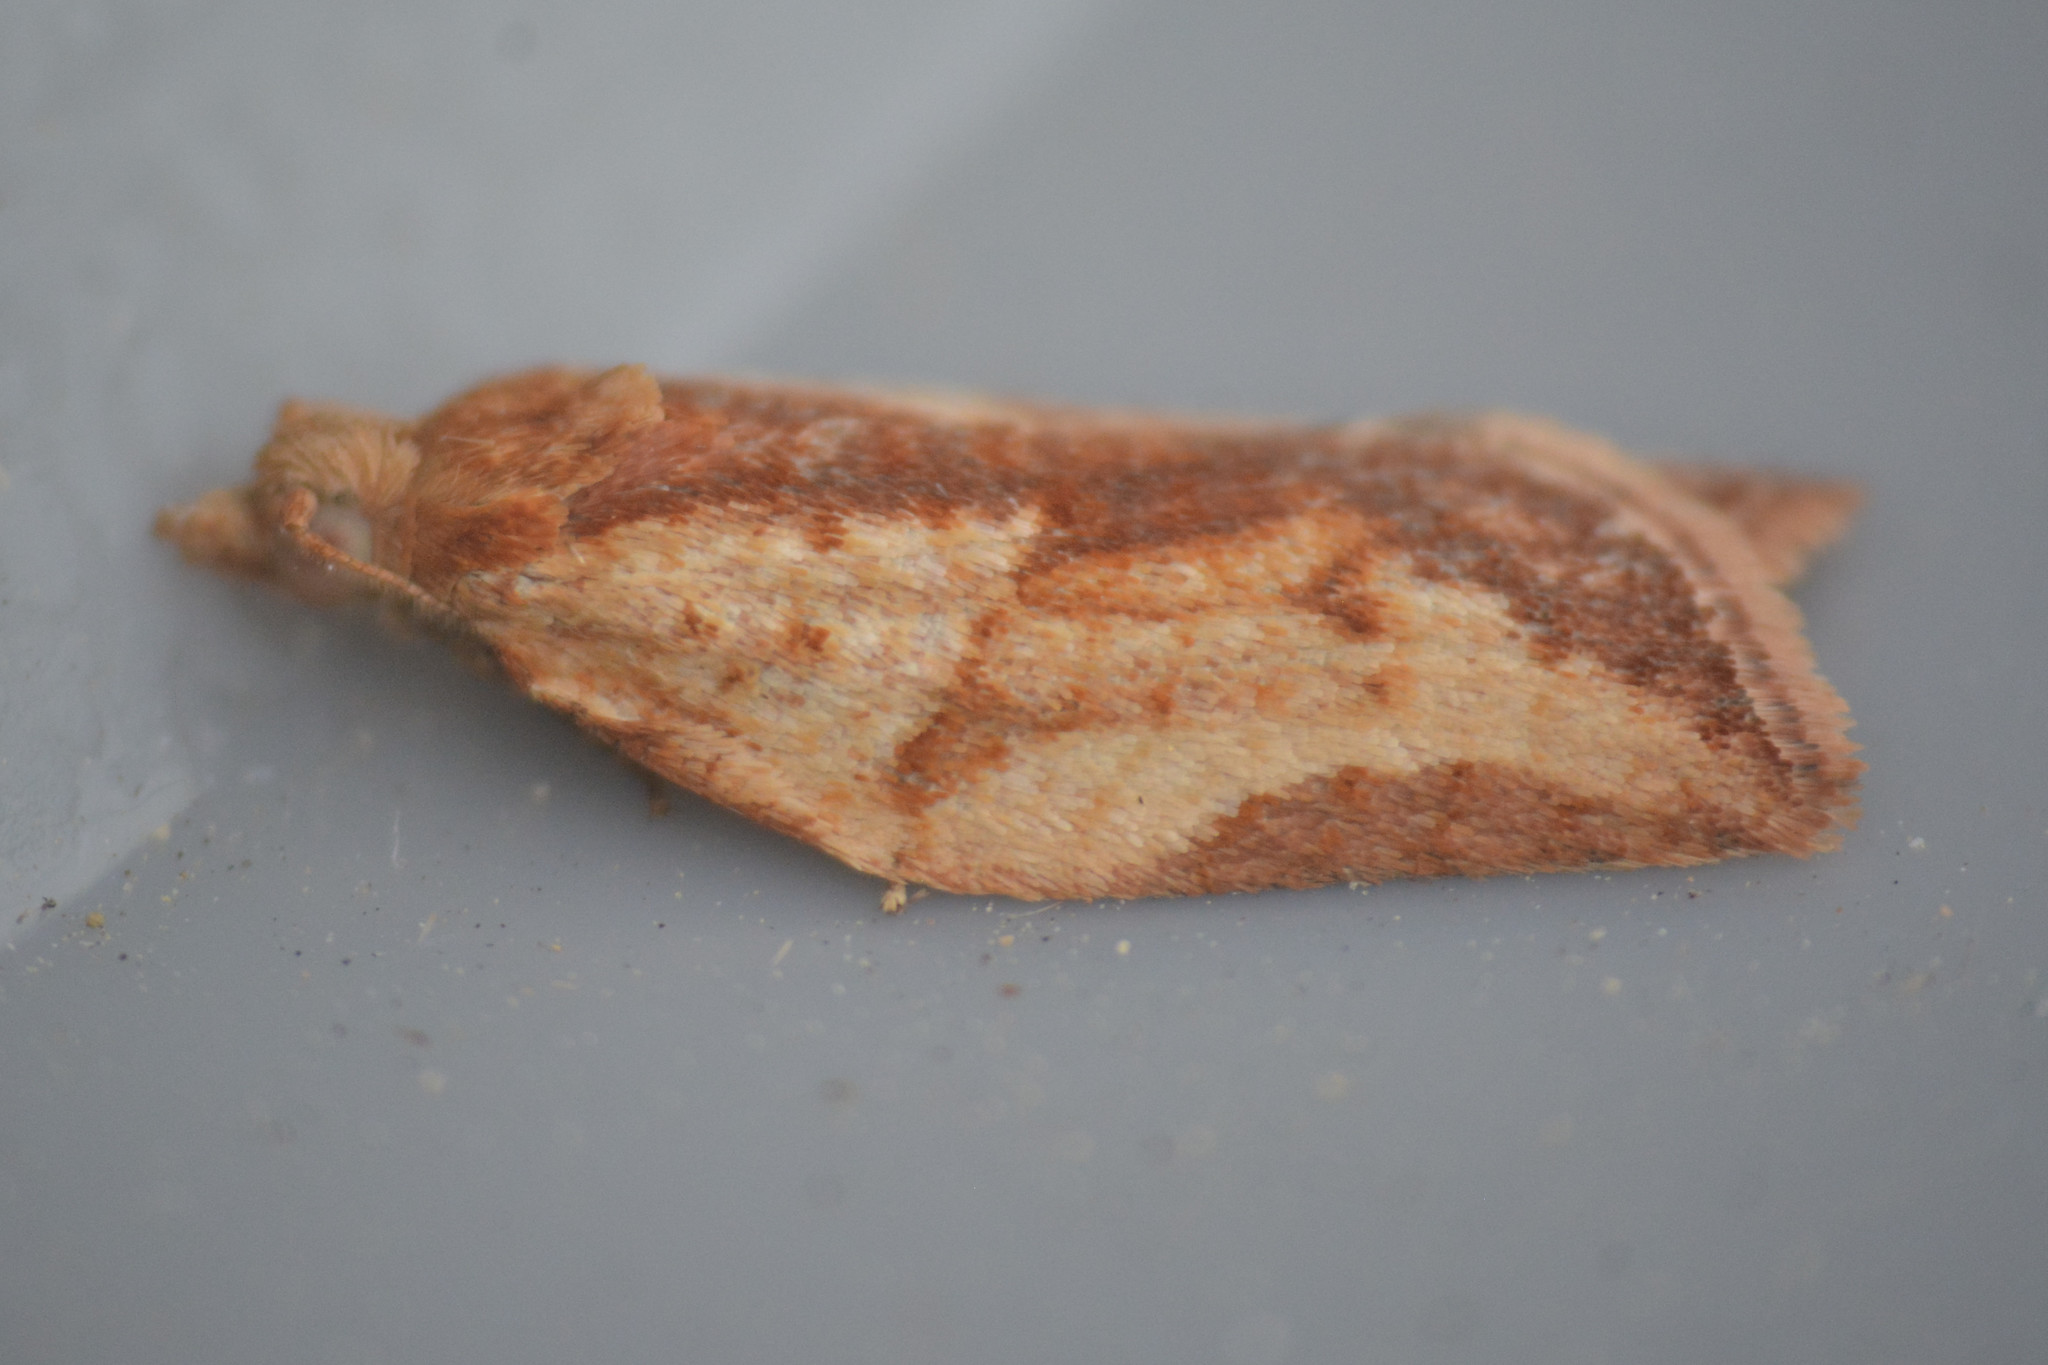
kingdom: Animalia
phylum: Arthropoda
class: Insecta
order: Lepidoptera
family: Tortricidae
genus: Epiphyas
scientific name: Epiphyas postvittana
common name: Light brown apple moth
